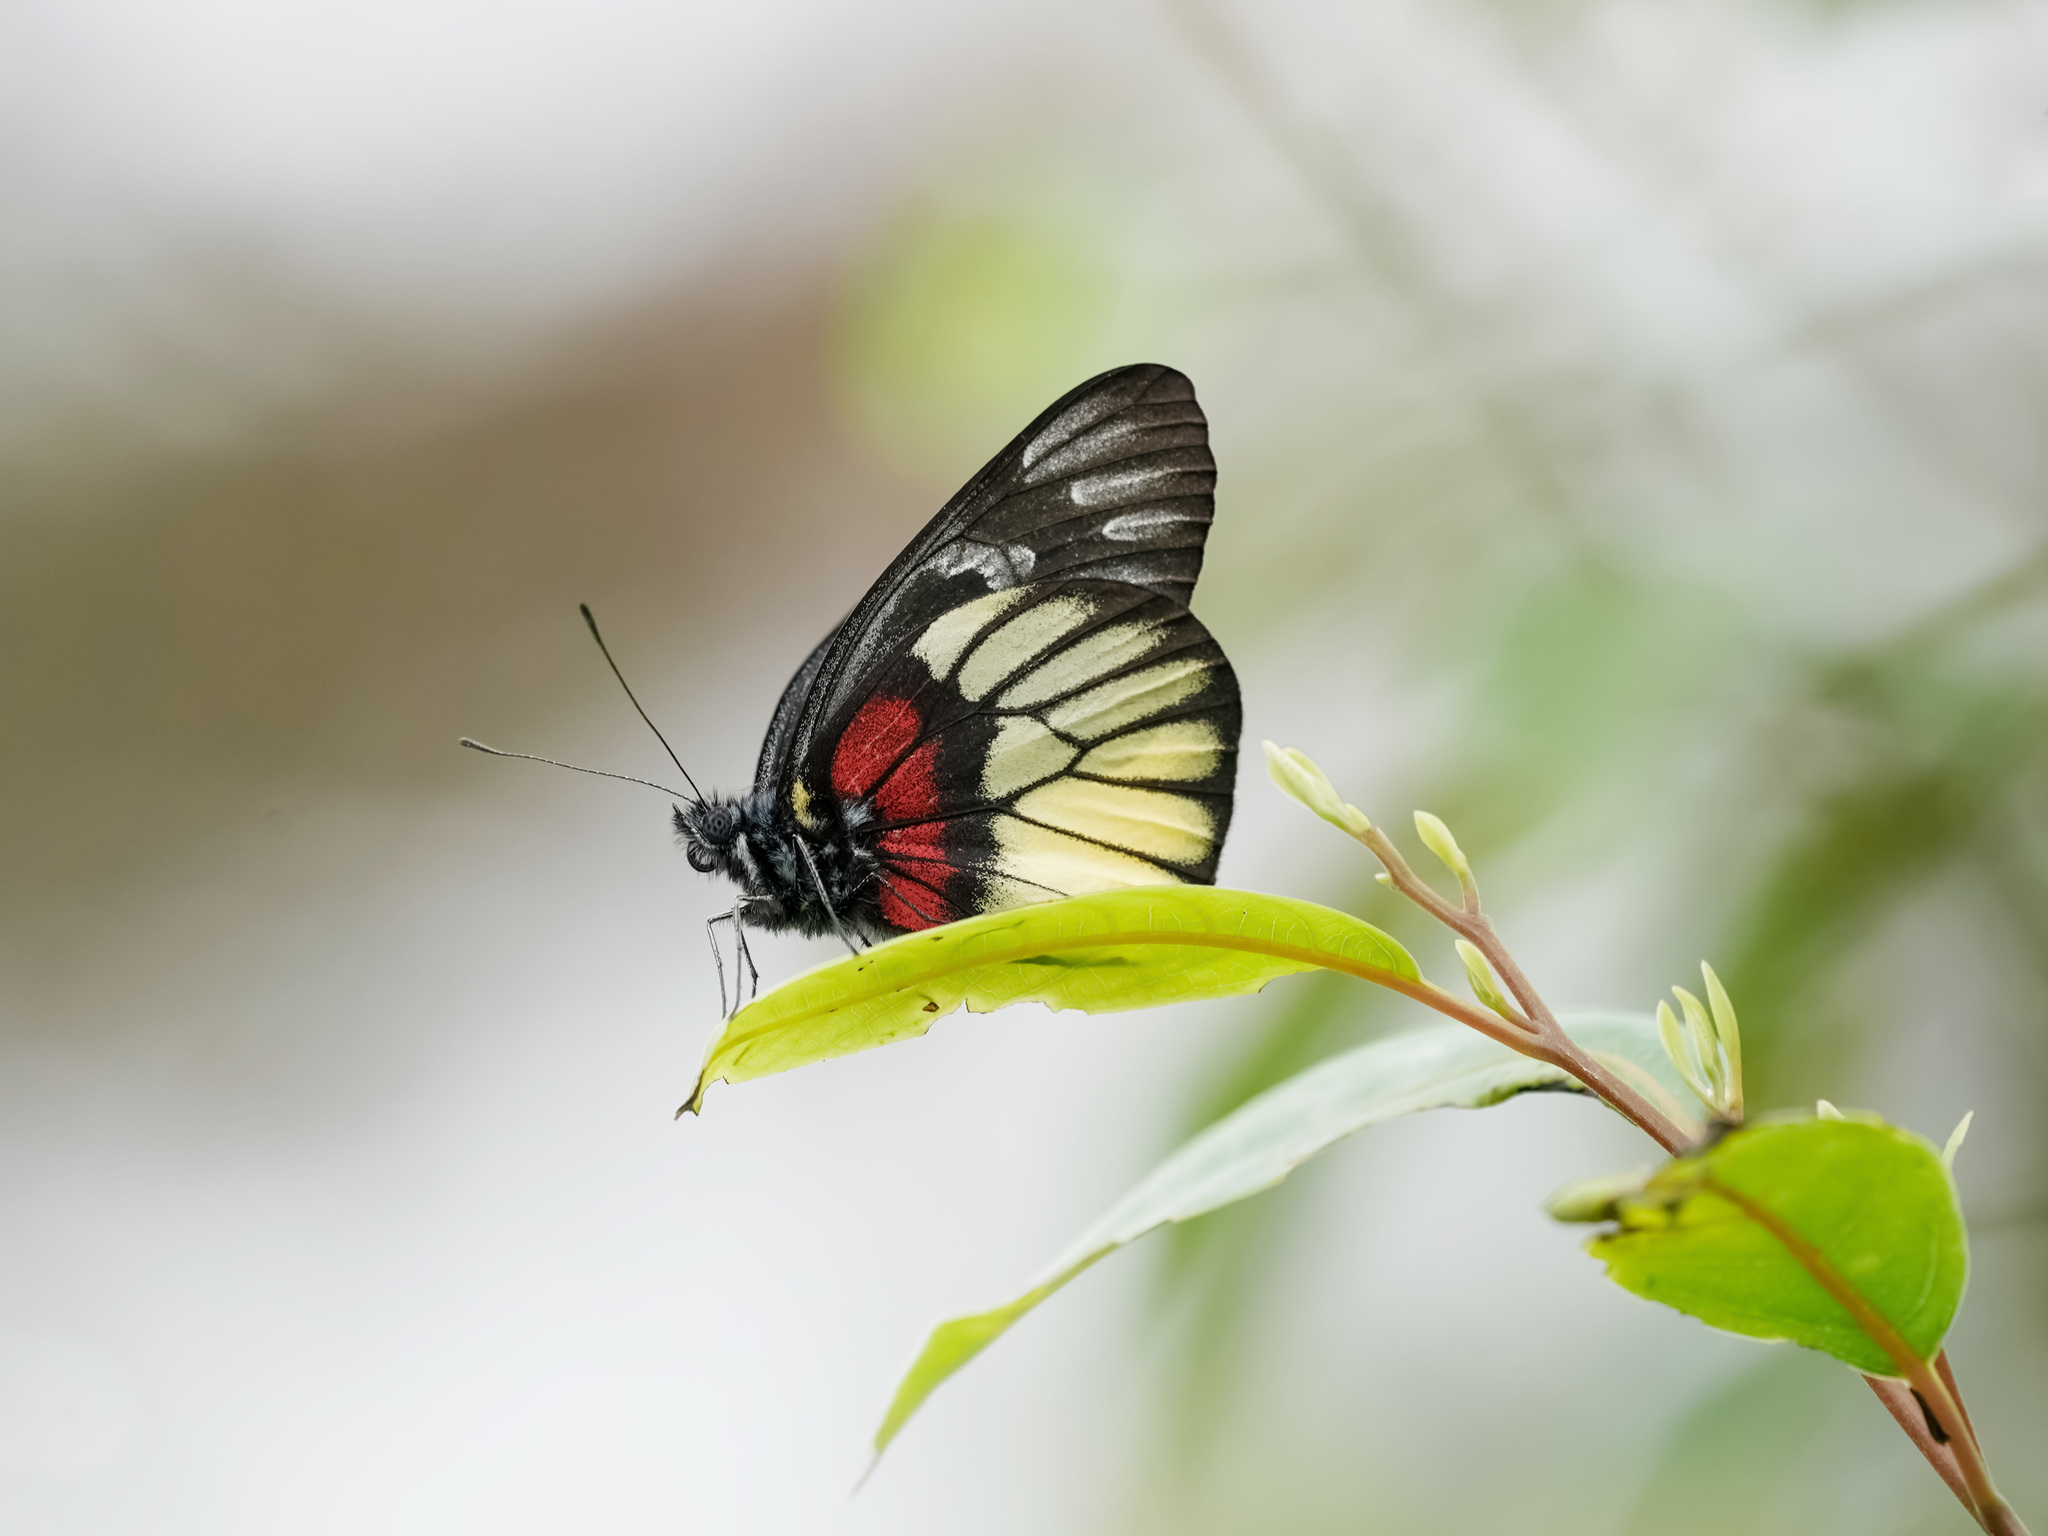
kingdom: Animalia
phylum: Arthropoda
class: Insecta
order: Lepidoptera
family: Pieridae
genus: Delias
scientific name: Delias ninus
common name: Malayan jezebel
